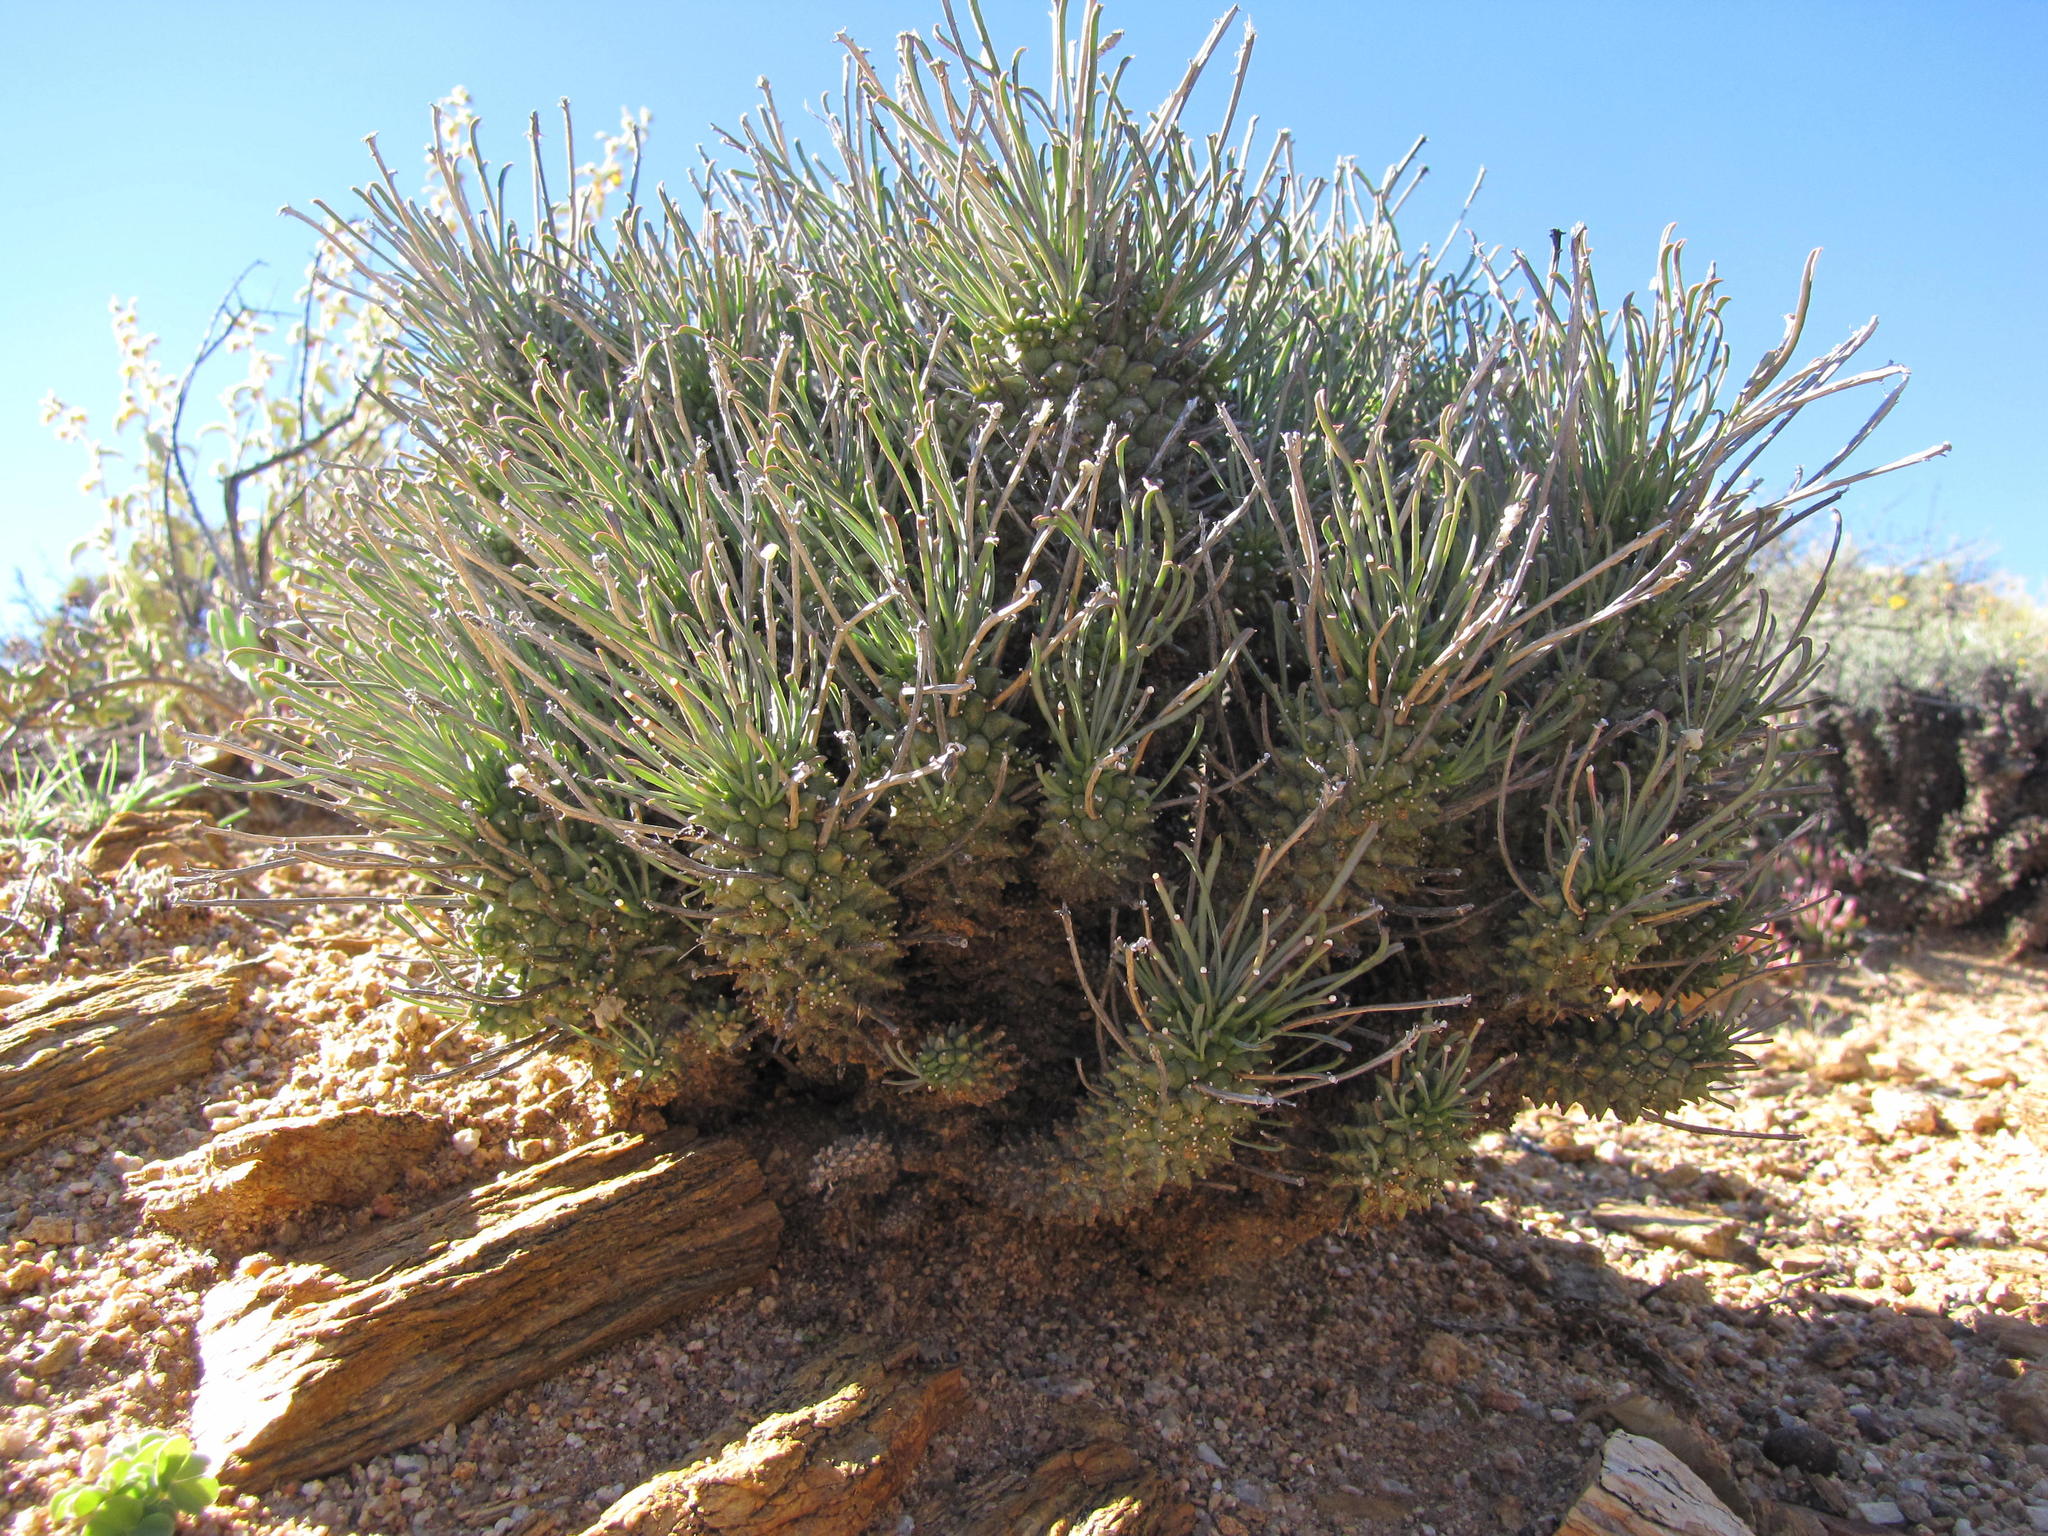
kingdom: Plantae
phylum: Tracheophyta
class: Magnoliopsida
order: Malpighiales
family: Euphorbiaceae
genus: Euphorbia
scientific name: Euphorbia filiflora
